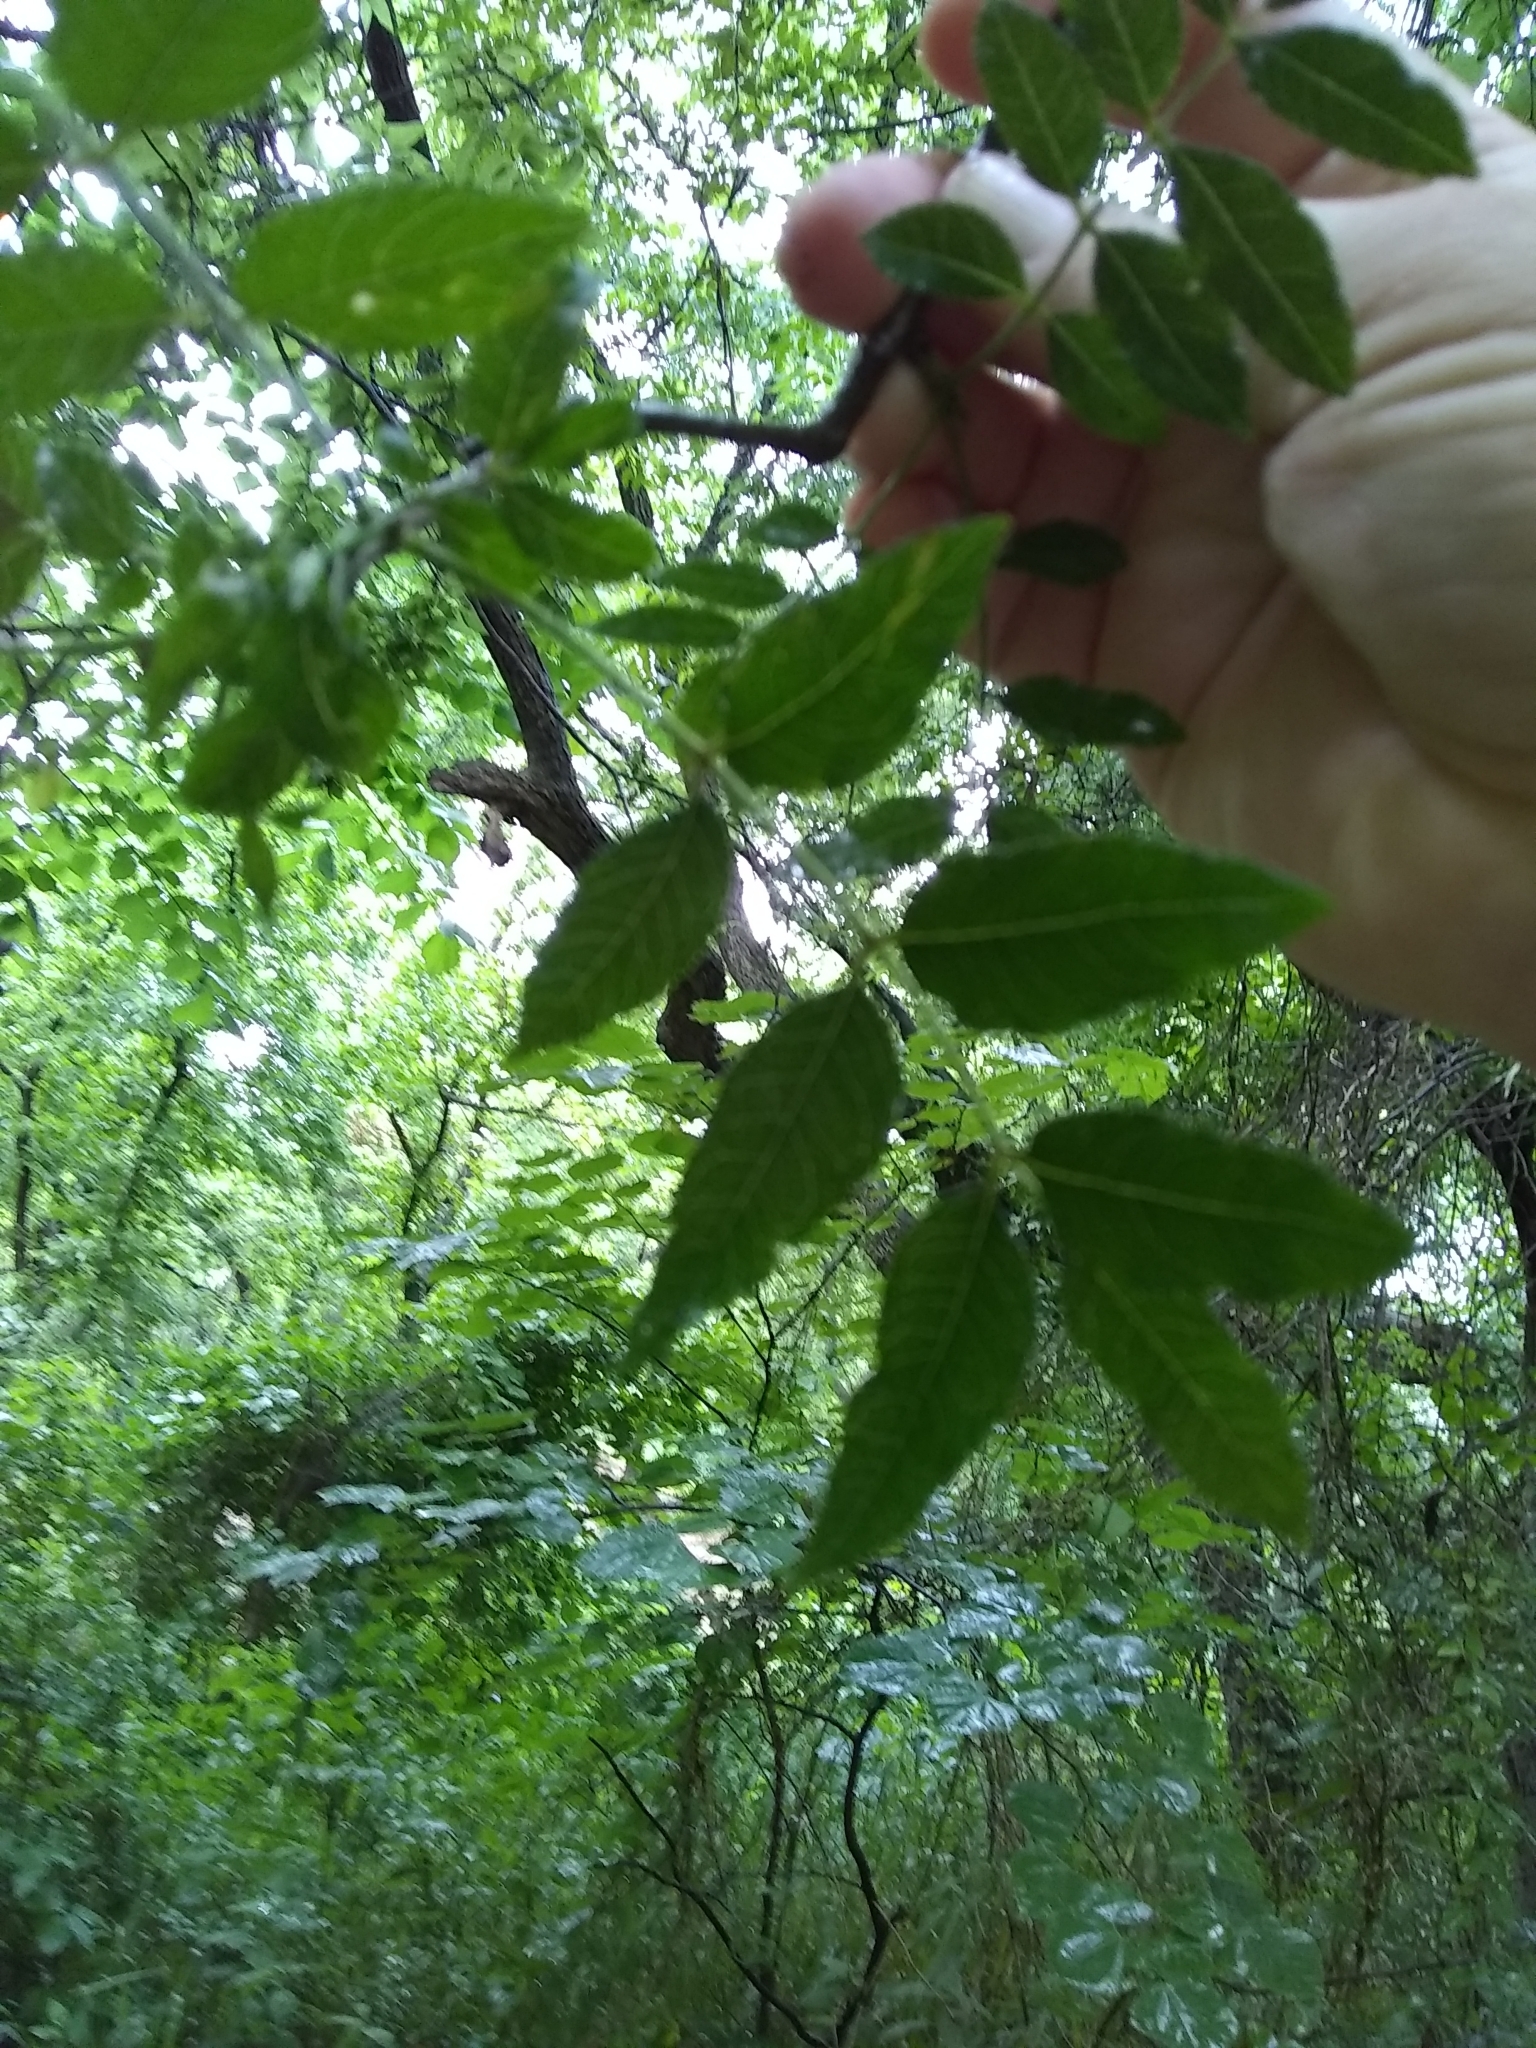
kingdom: Plantae
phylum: Tracheophyta
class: Magnoliopsida
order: Sapindales
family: Rutaceae
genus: Zanthoxylum
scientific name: Zanthoxylum clava-herculis
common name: Hercules'-club
